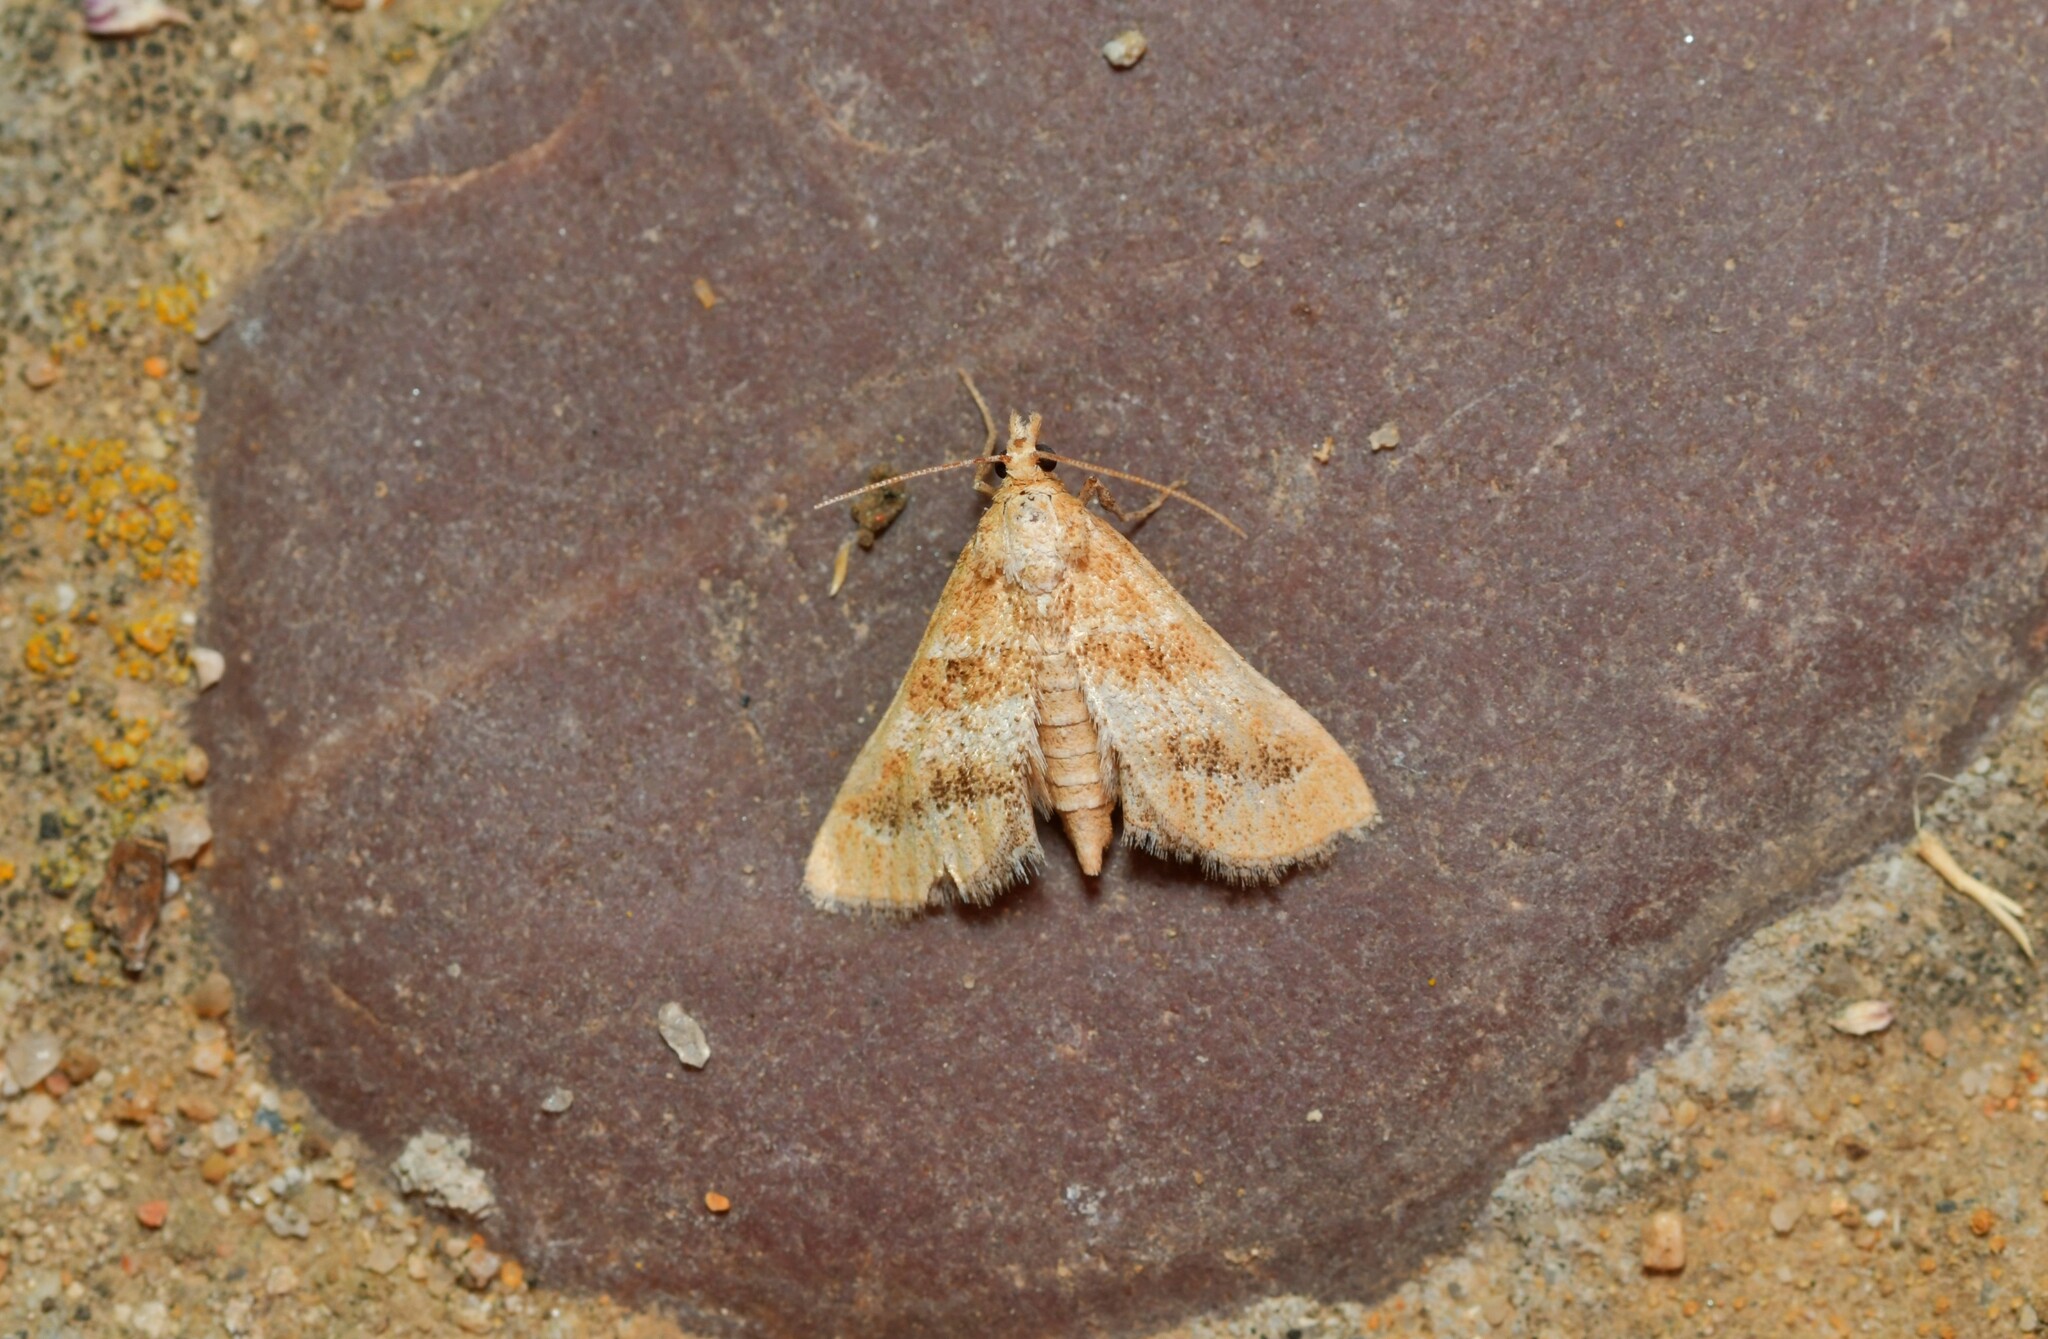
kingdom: Animalia
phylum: Arthropoda
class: Insecta
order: Lepidoptera
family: Crambidae
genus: Metasia
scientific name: Metasia suppandalis
